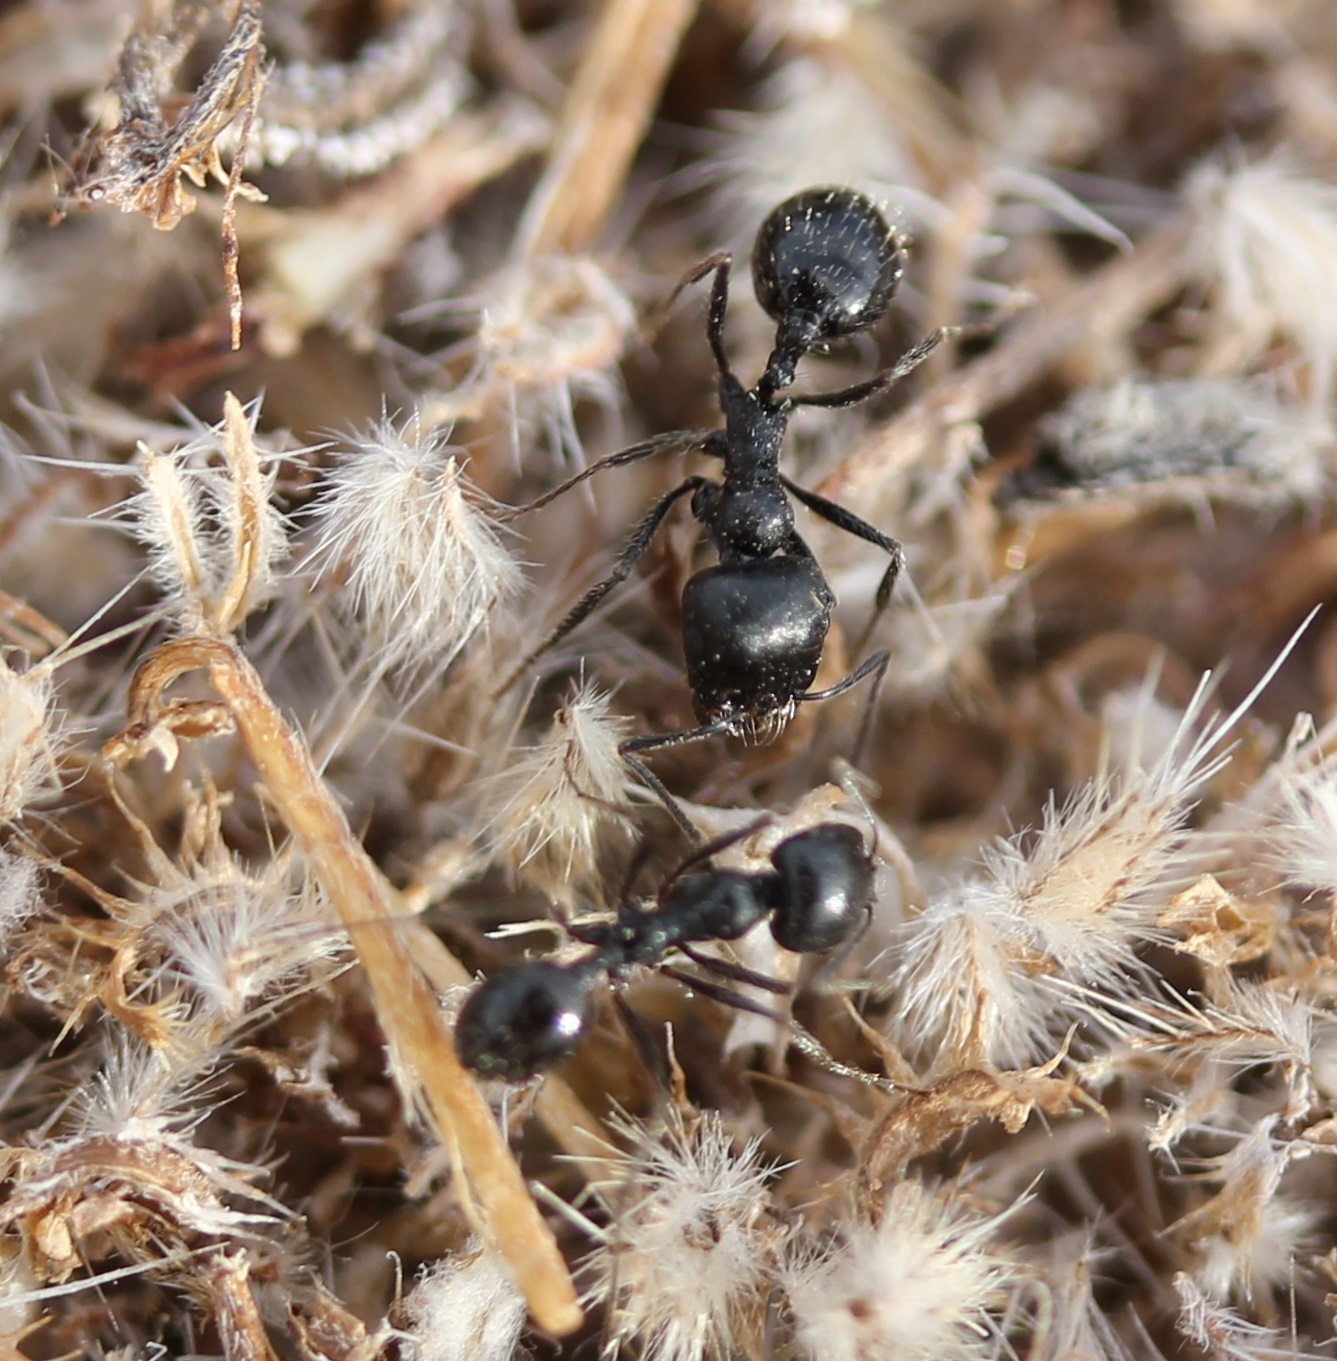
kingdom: Animalia
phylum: Arthropoda
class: Insecta
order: Hymenoptera
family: Formicidae
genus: Messor
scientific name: Messor pergandei
